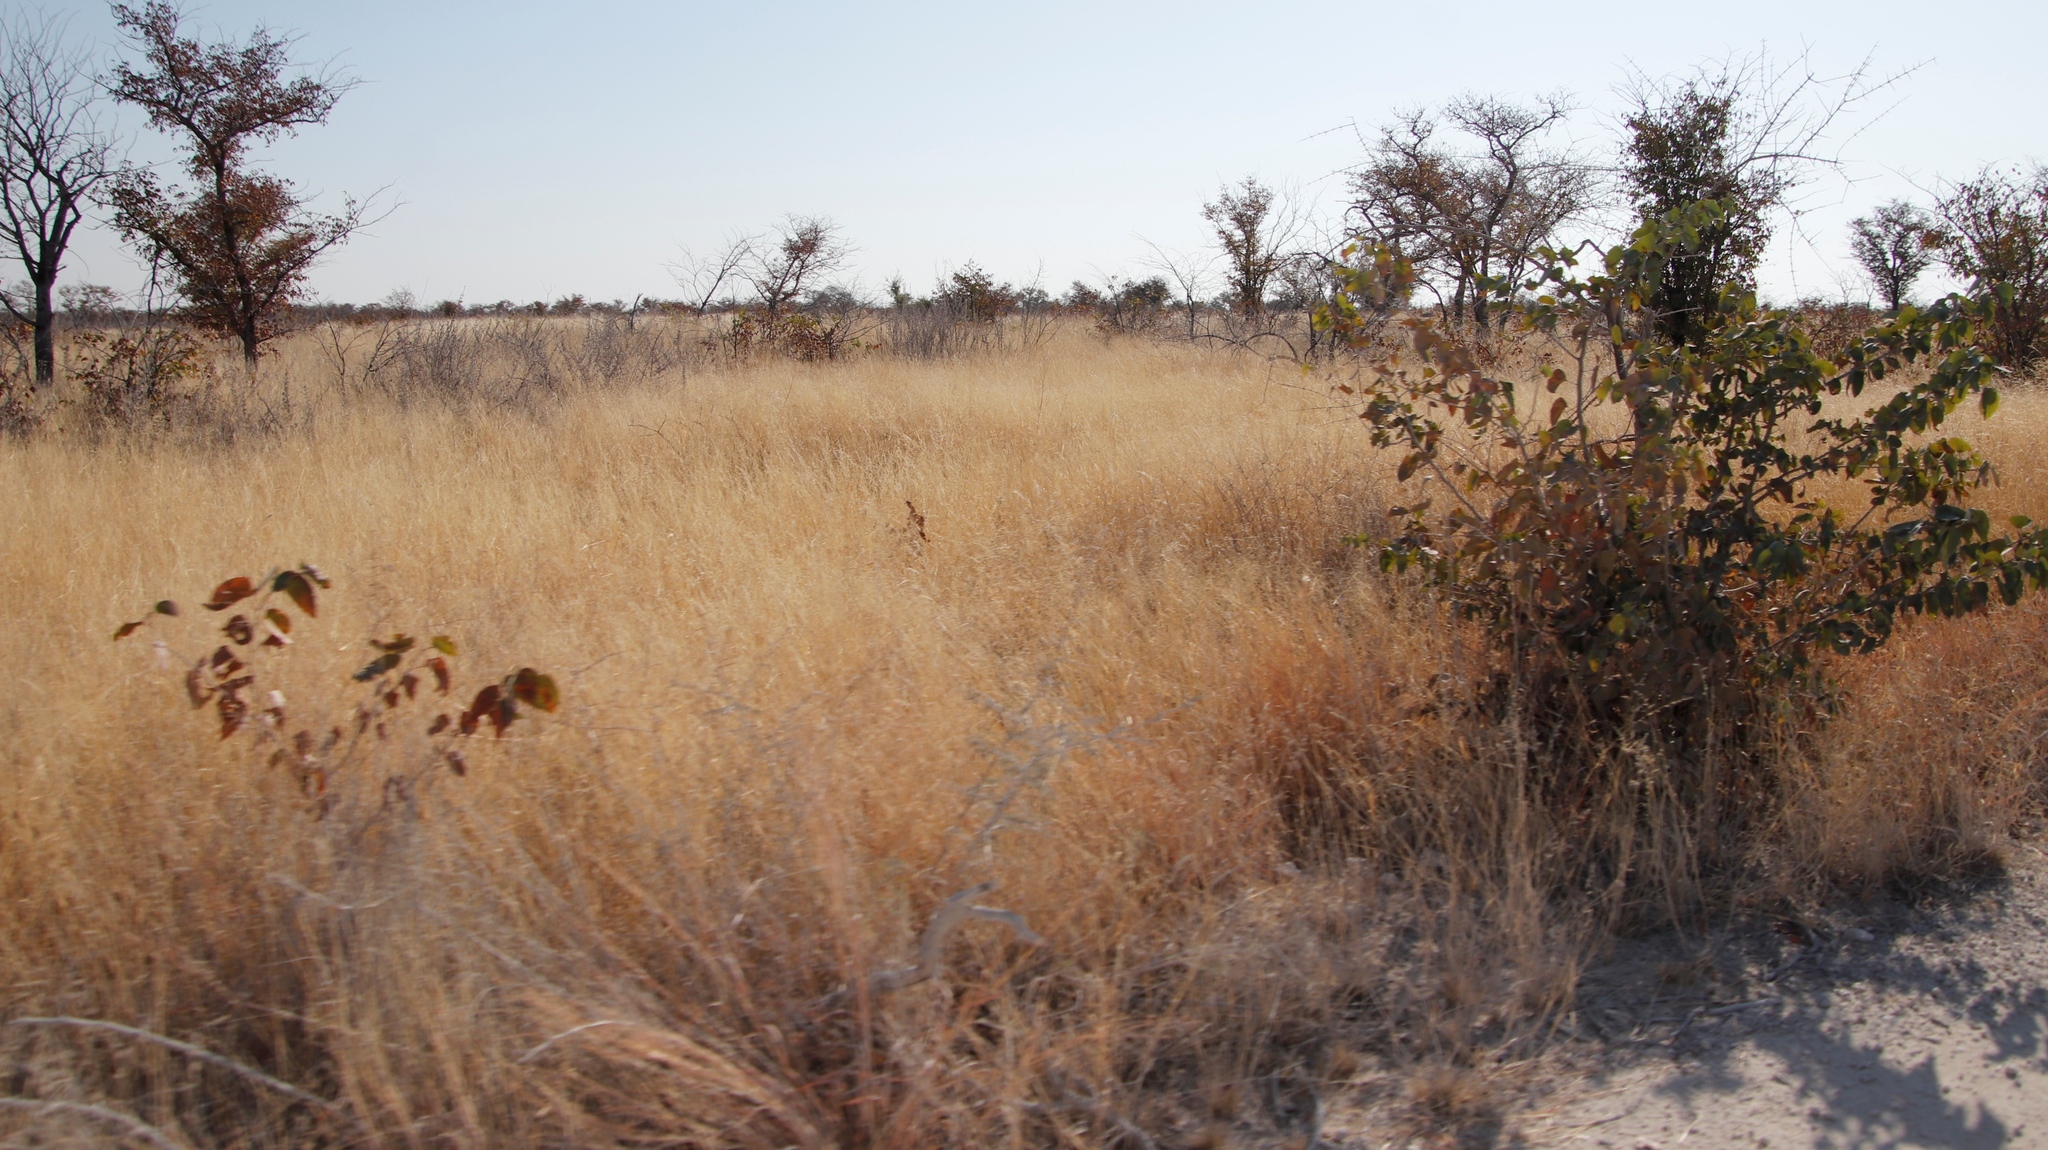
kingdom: Plantae
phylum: Tracheophyta
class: Magnoliopsida
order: Lamiales
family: Bignoniaceae
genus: Catophractes
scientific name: Catophractes alexandri
